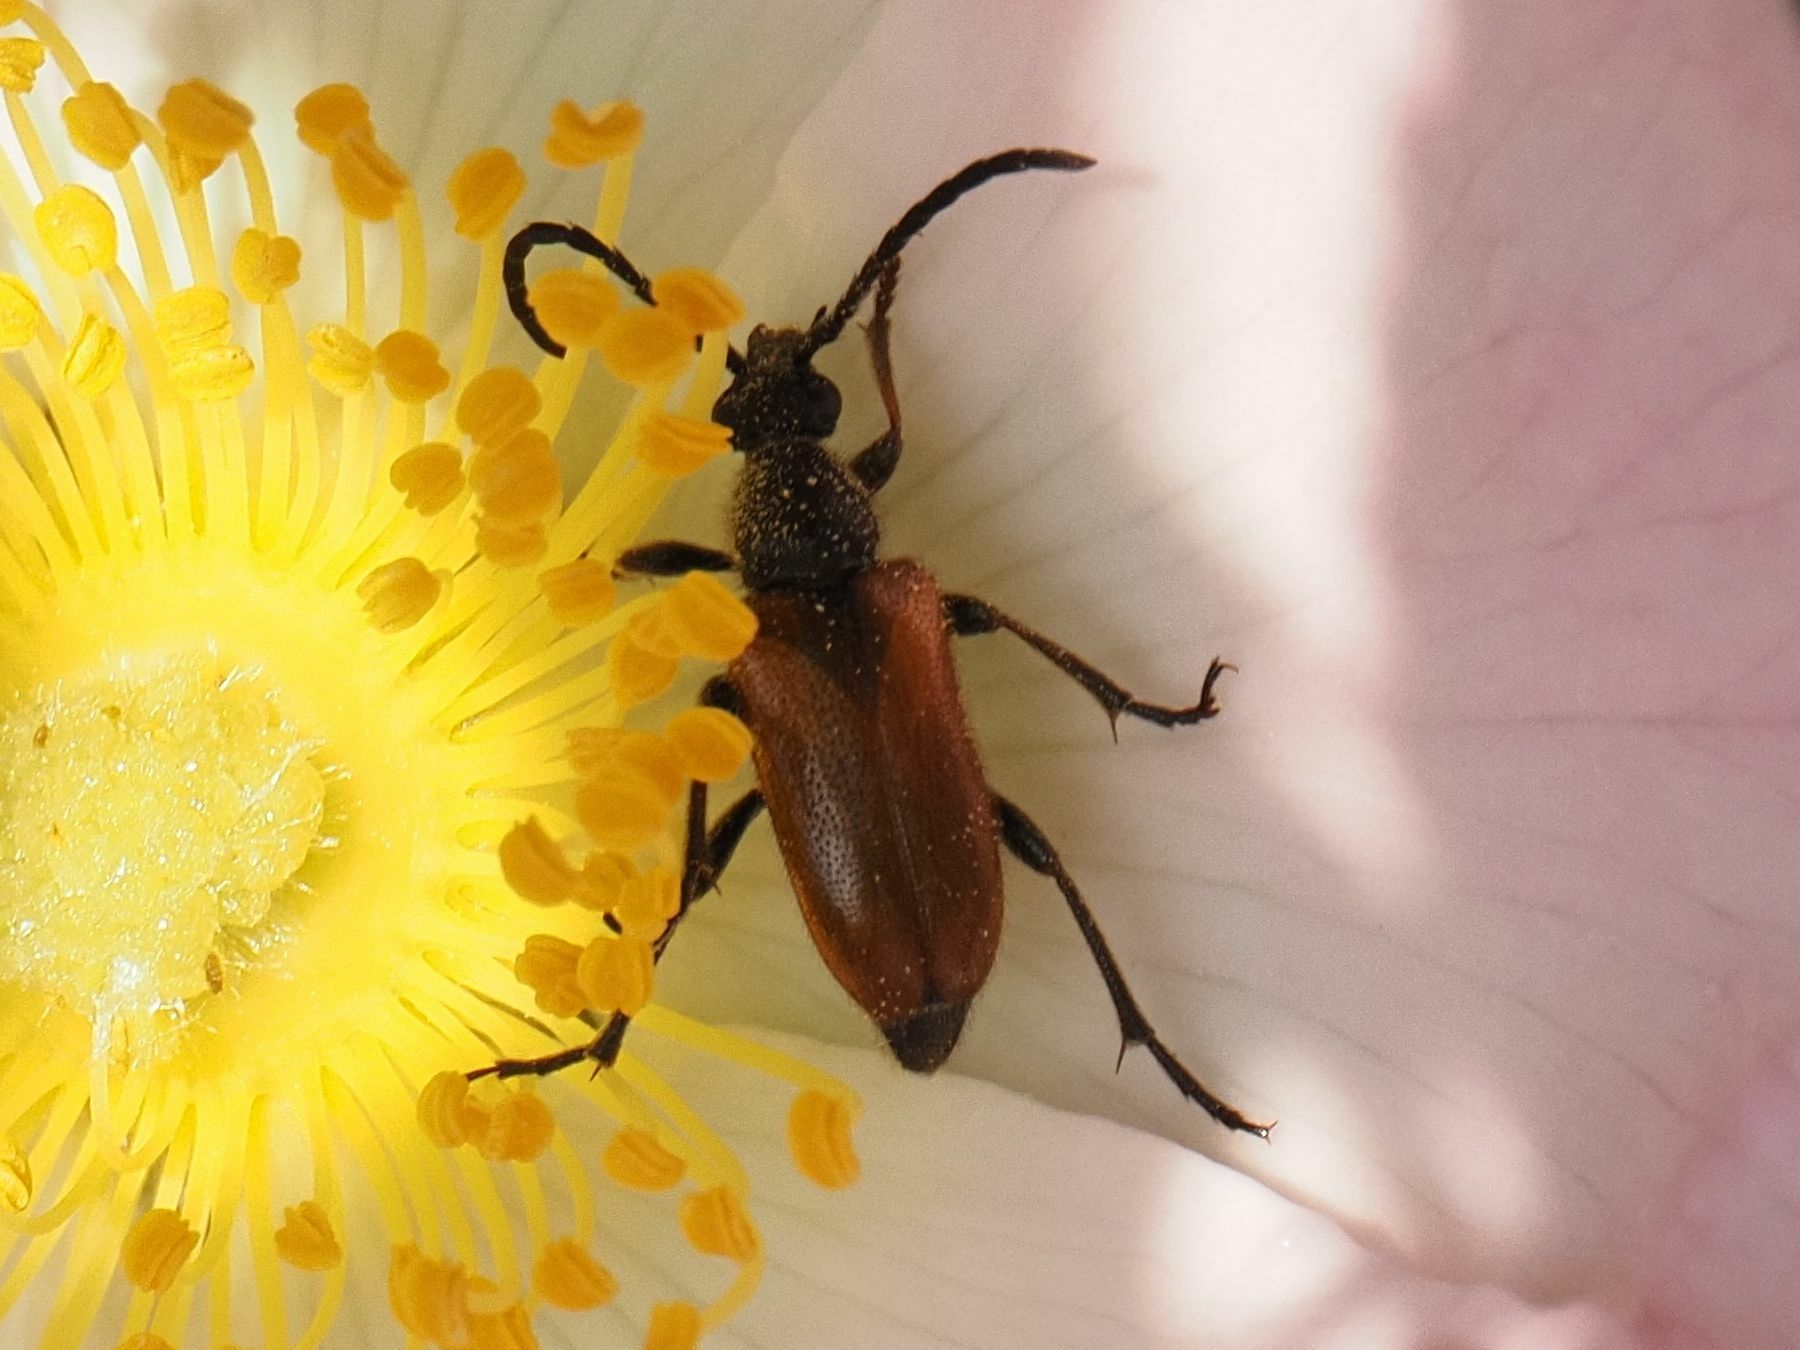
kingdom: Animalia
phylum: Arthropoda
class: Insecta
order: Coleoptera
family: Cerambycidae
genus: Pseudovadonia
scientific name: Pseudovadonia livida
